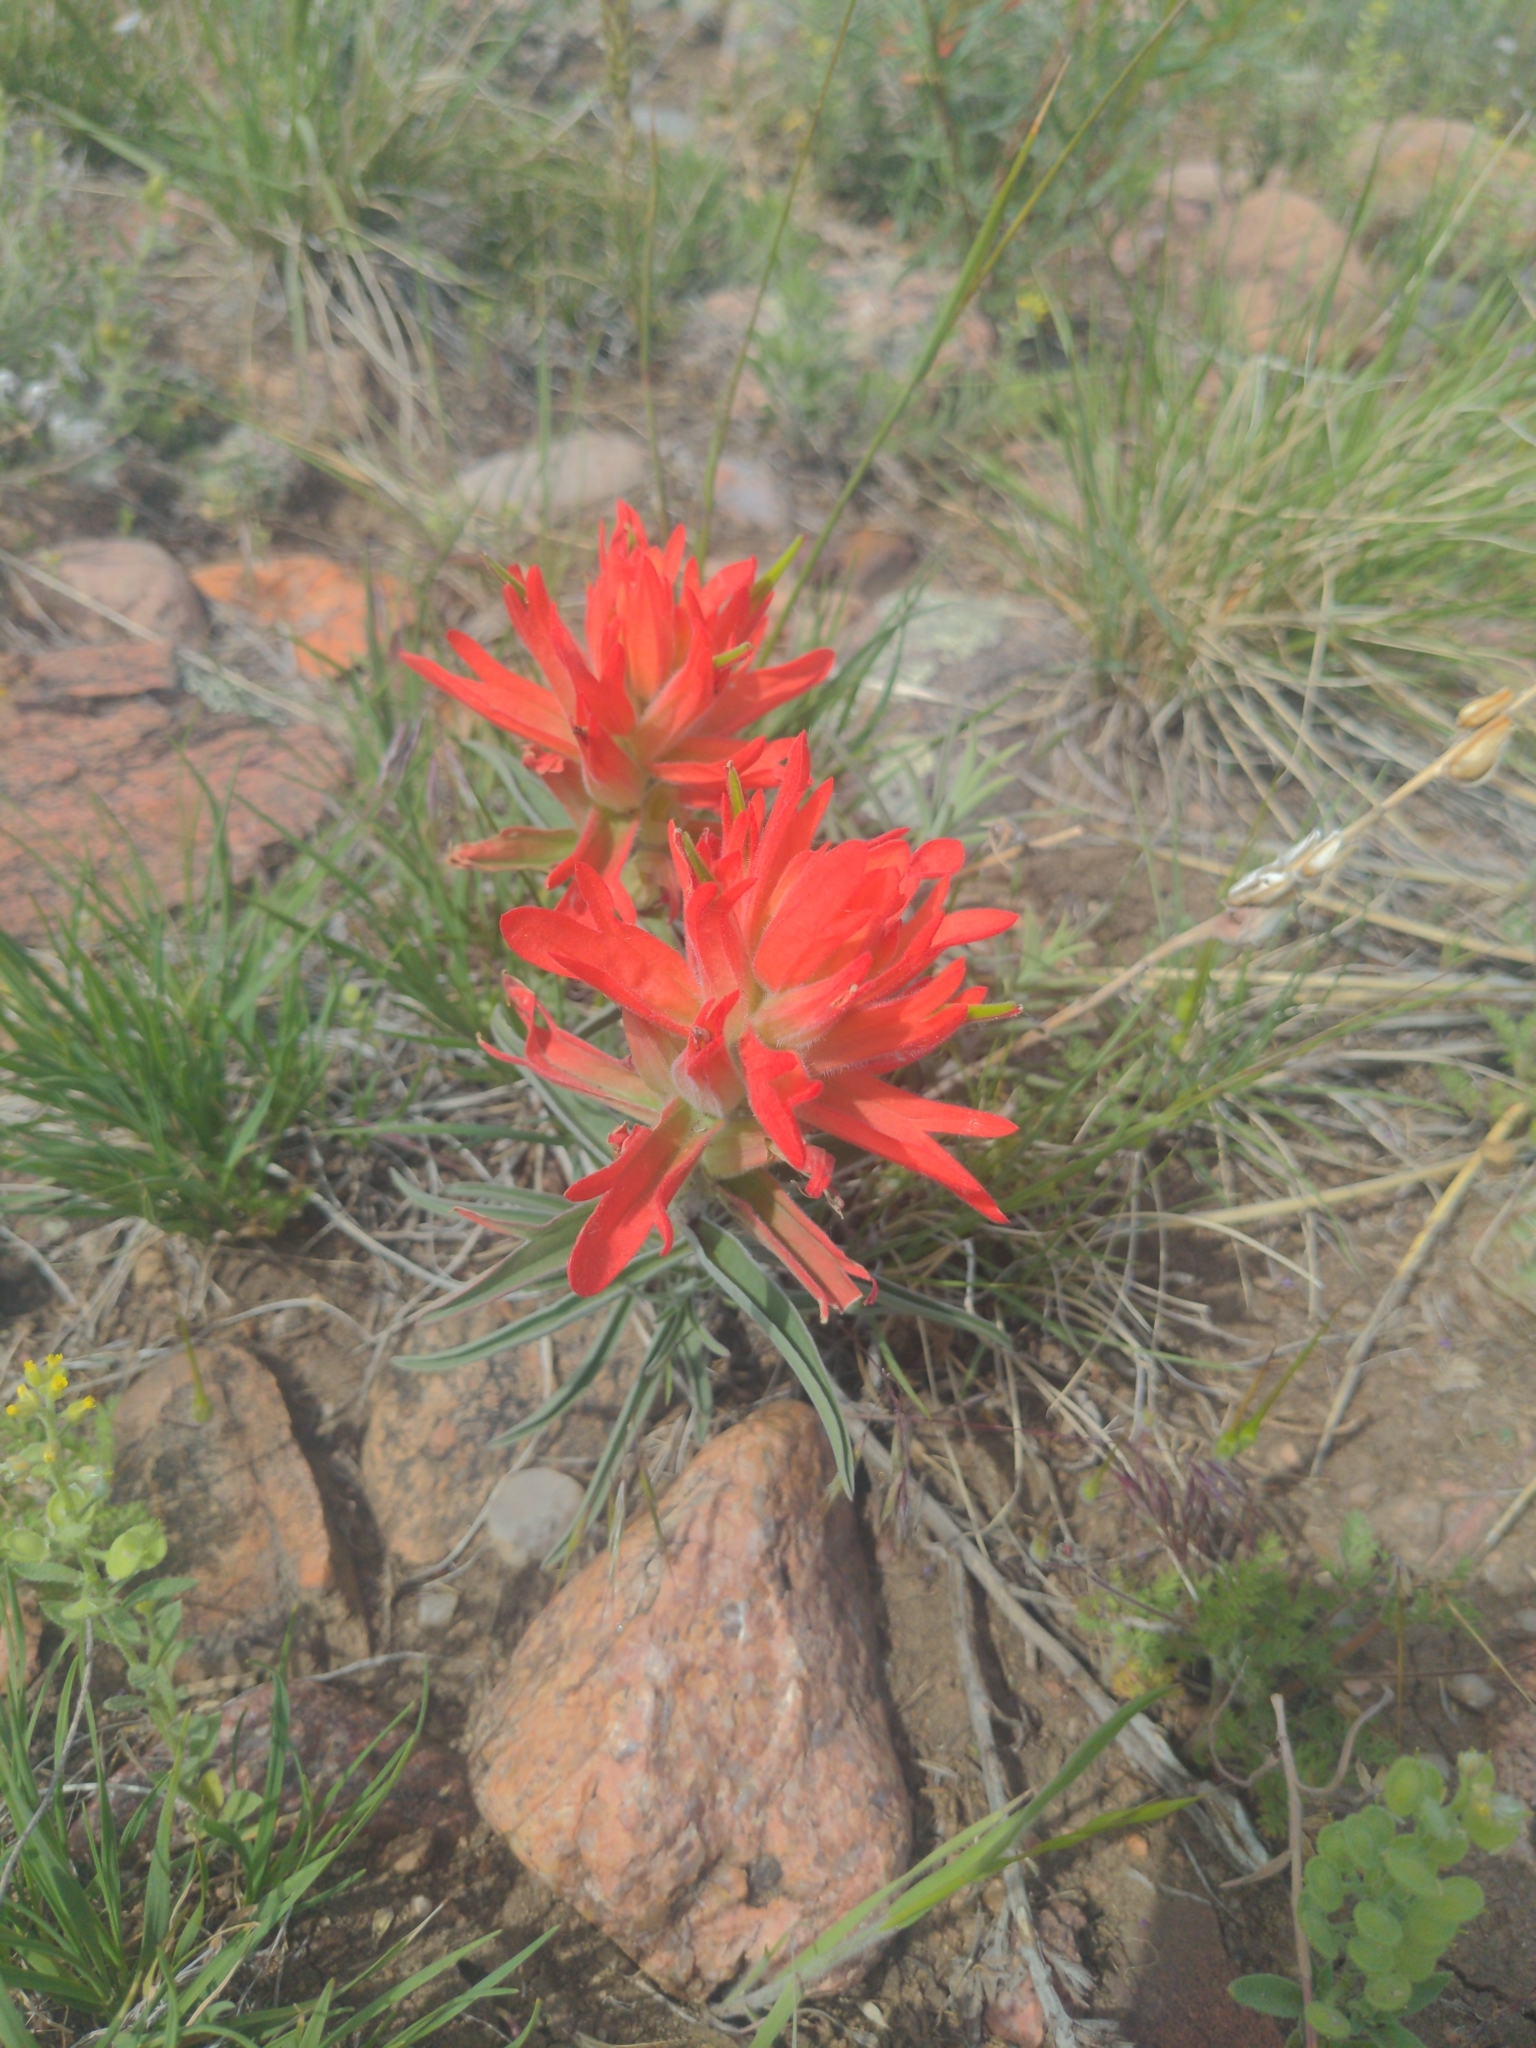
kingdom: Plantae
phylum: Tracheophyta
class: Magnoliopsida
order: Lamiales
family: Orobanchaceae
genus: Castilleja
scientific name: Castilleja integra
